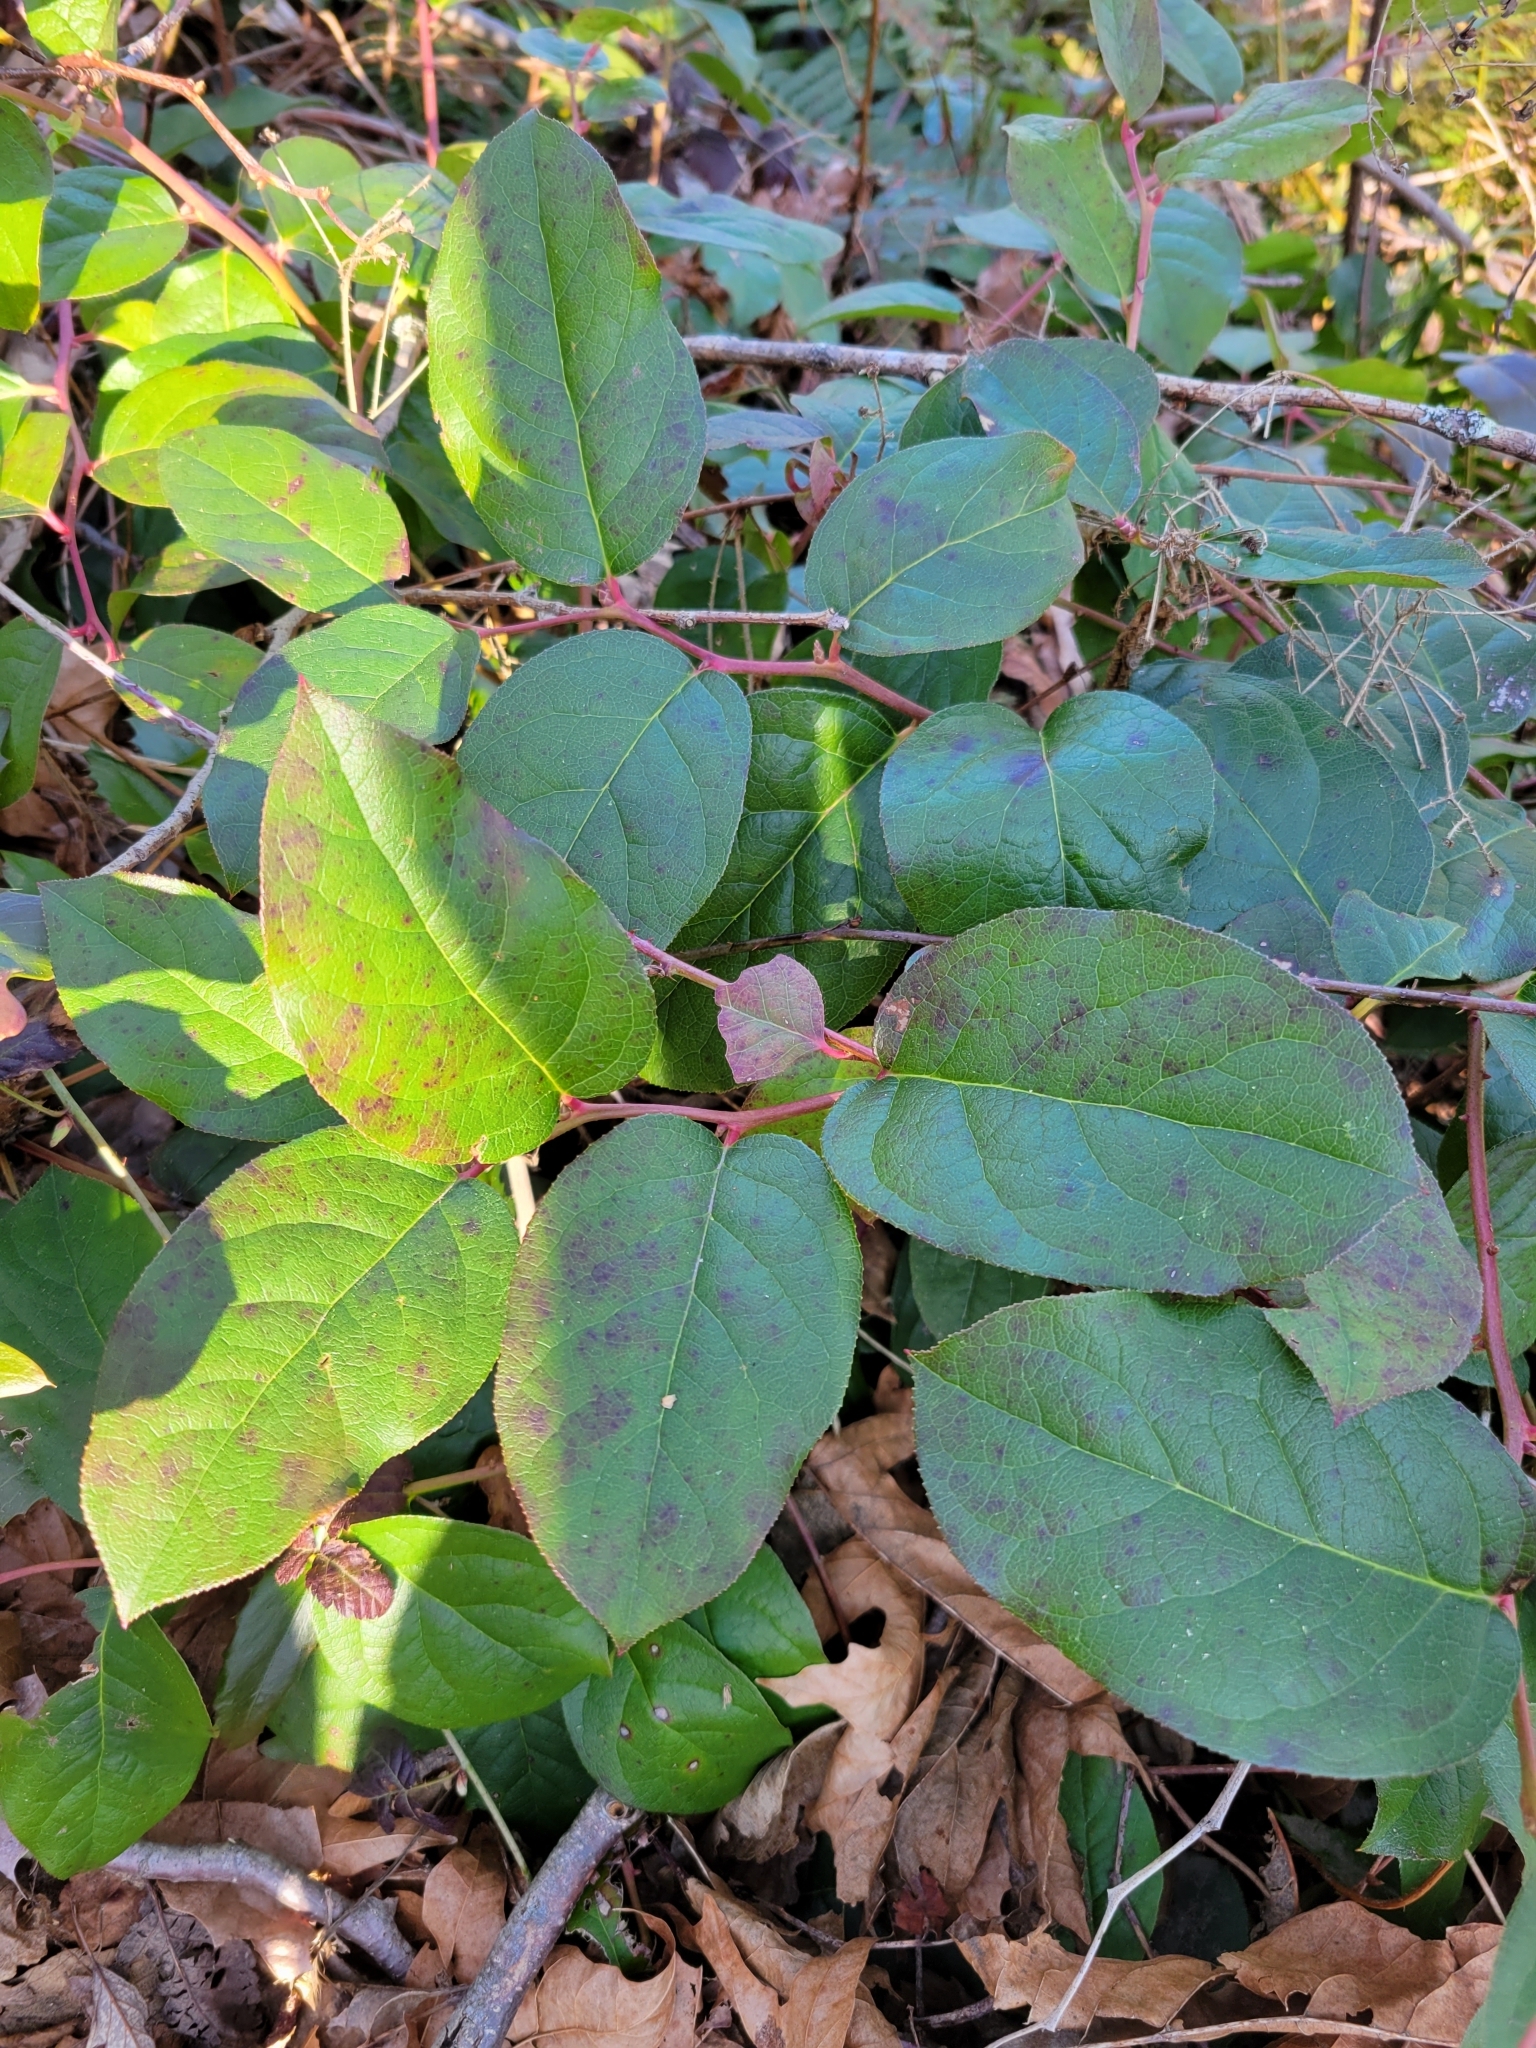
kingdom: Plantae
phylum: Tracheophyta
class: Magnoliopsida
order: Ericales
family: Ericaceae
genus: Gaultheria
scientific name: Gaultheria shallon
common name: Shallon
